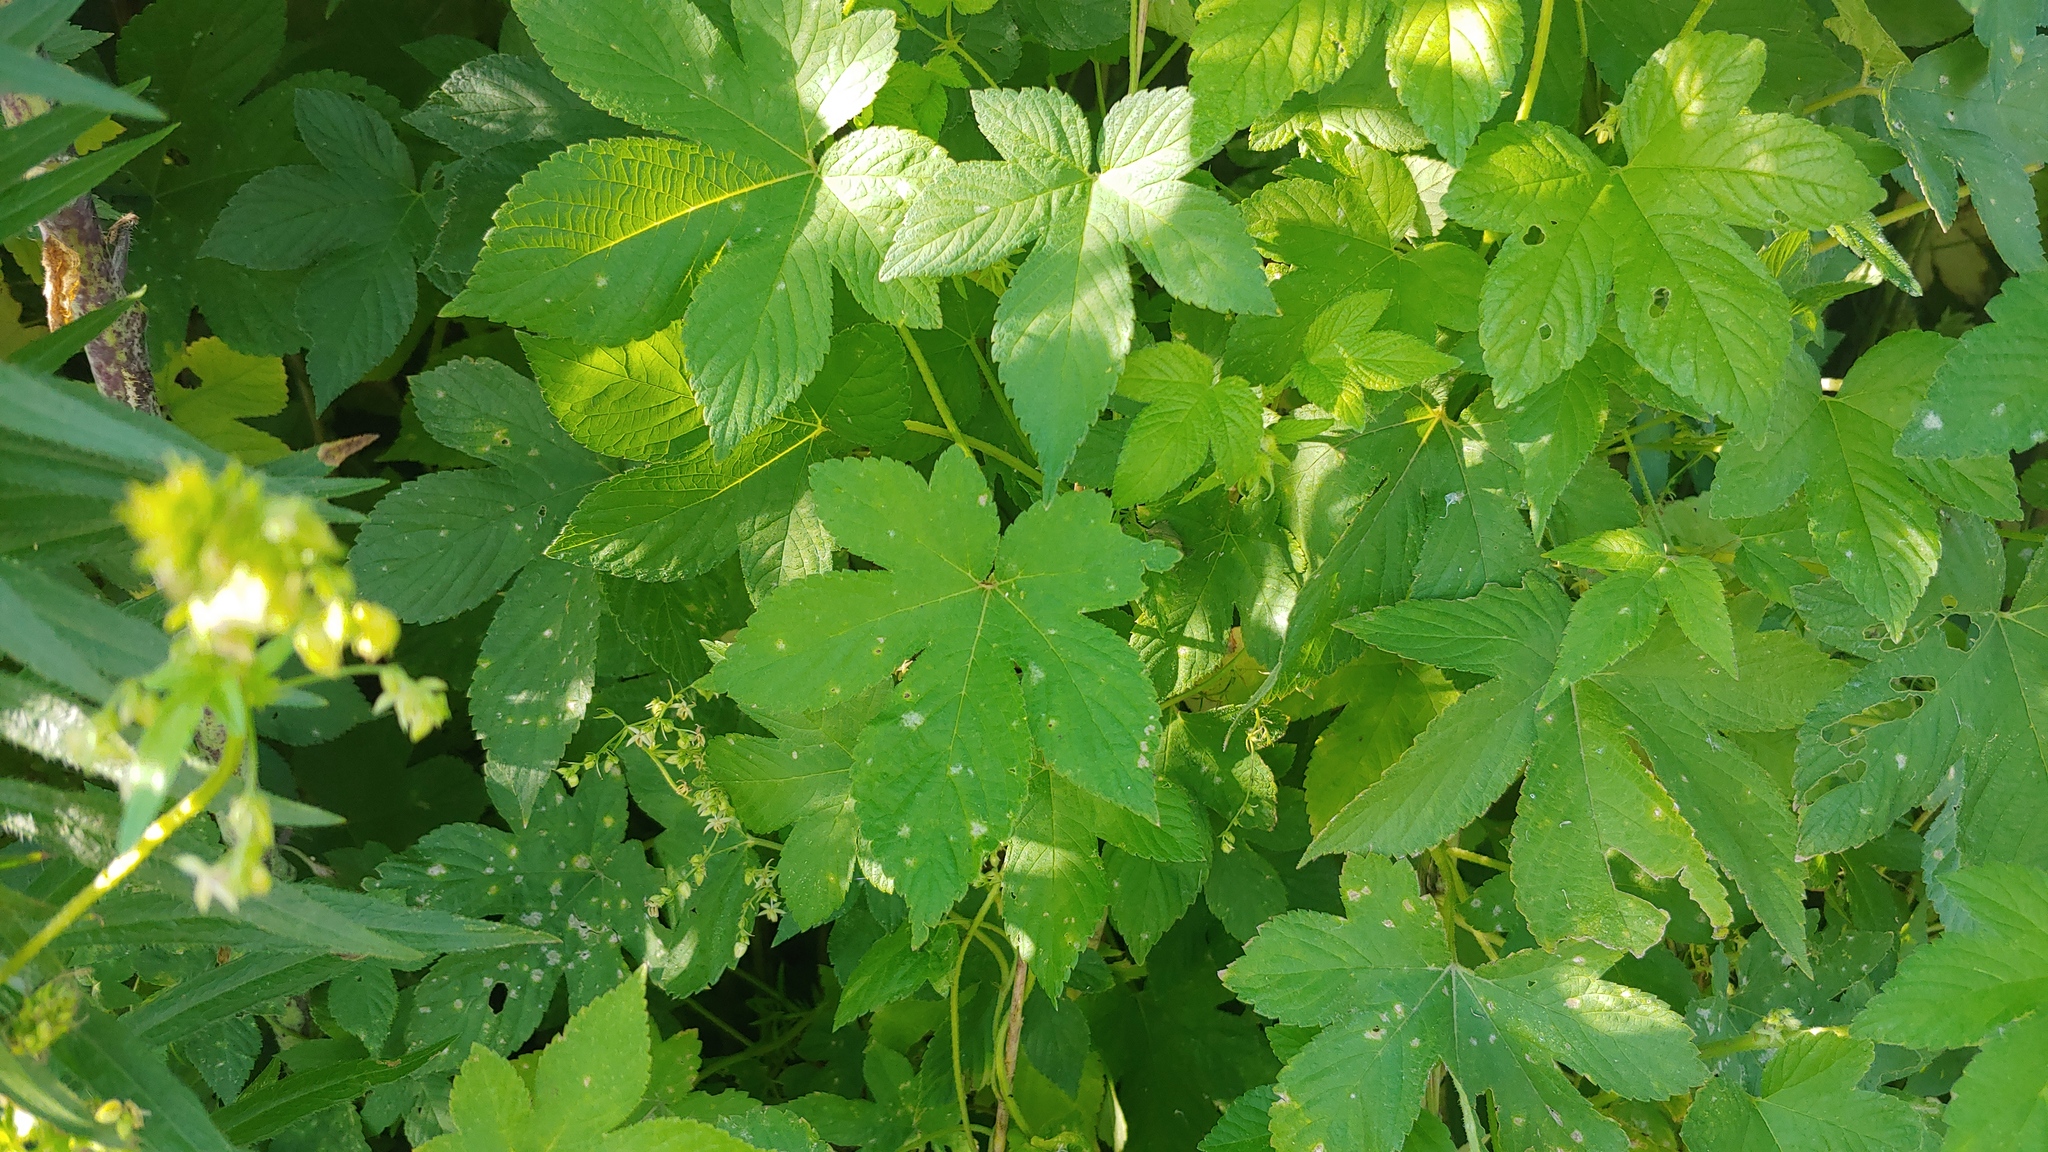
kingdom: Plantae
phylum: Tracheophyta
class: Magnoliopsida
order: Rosales
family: Cannabaceae
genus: Humulus
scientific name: Humulus scandens
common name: Japanese hop
